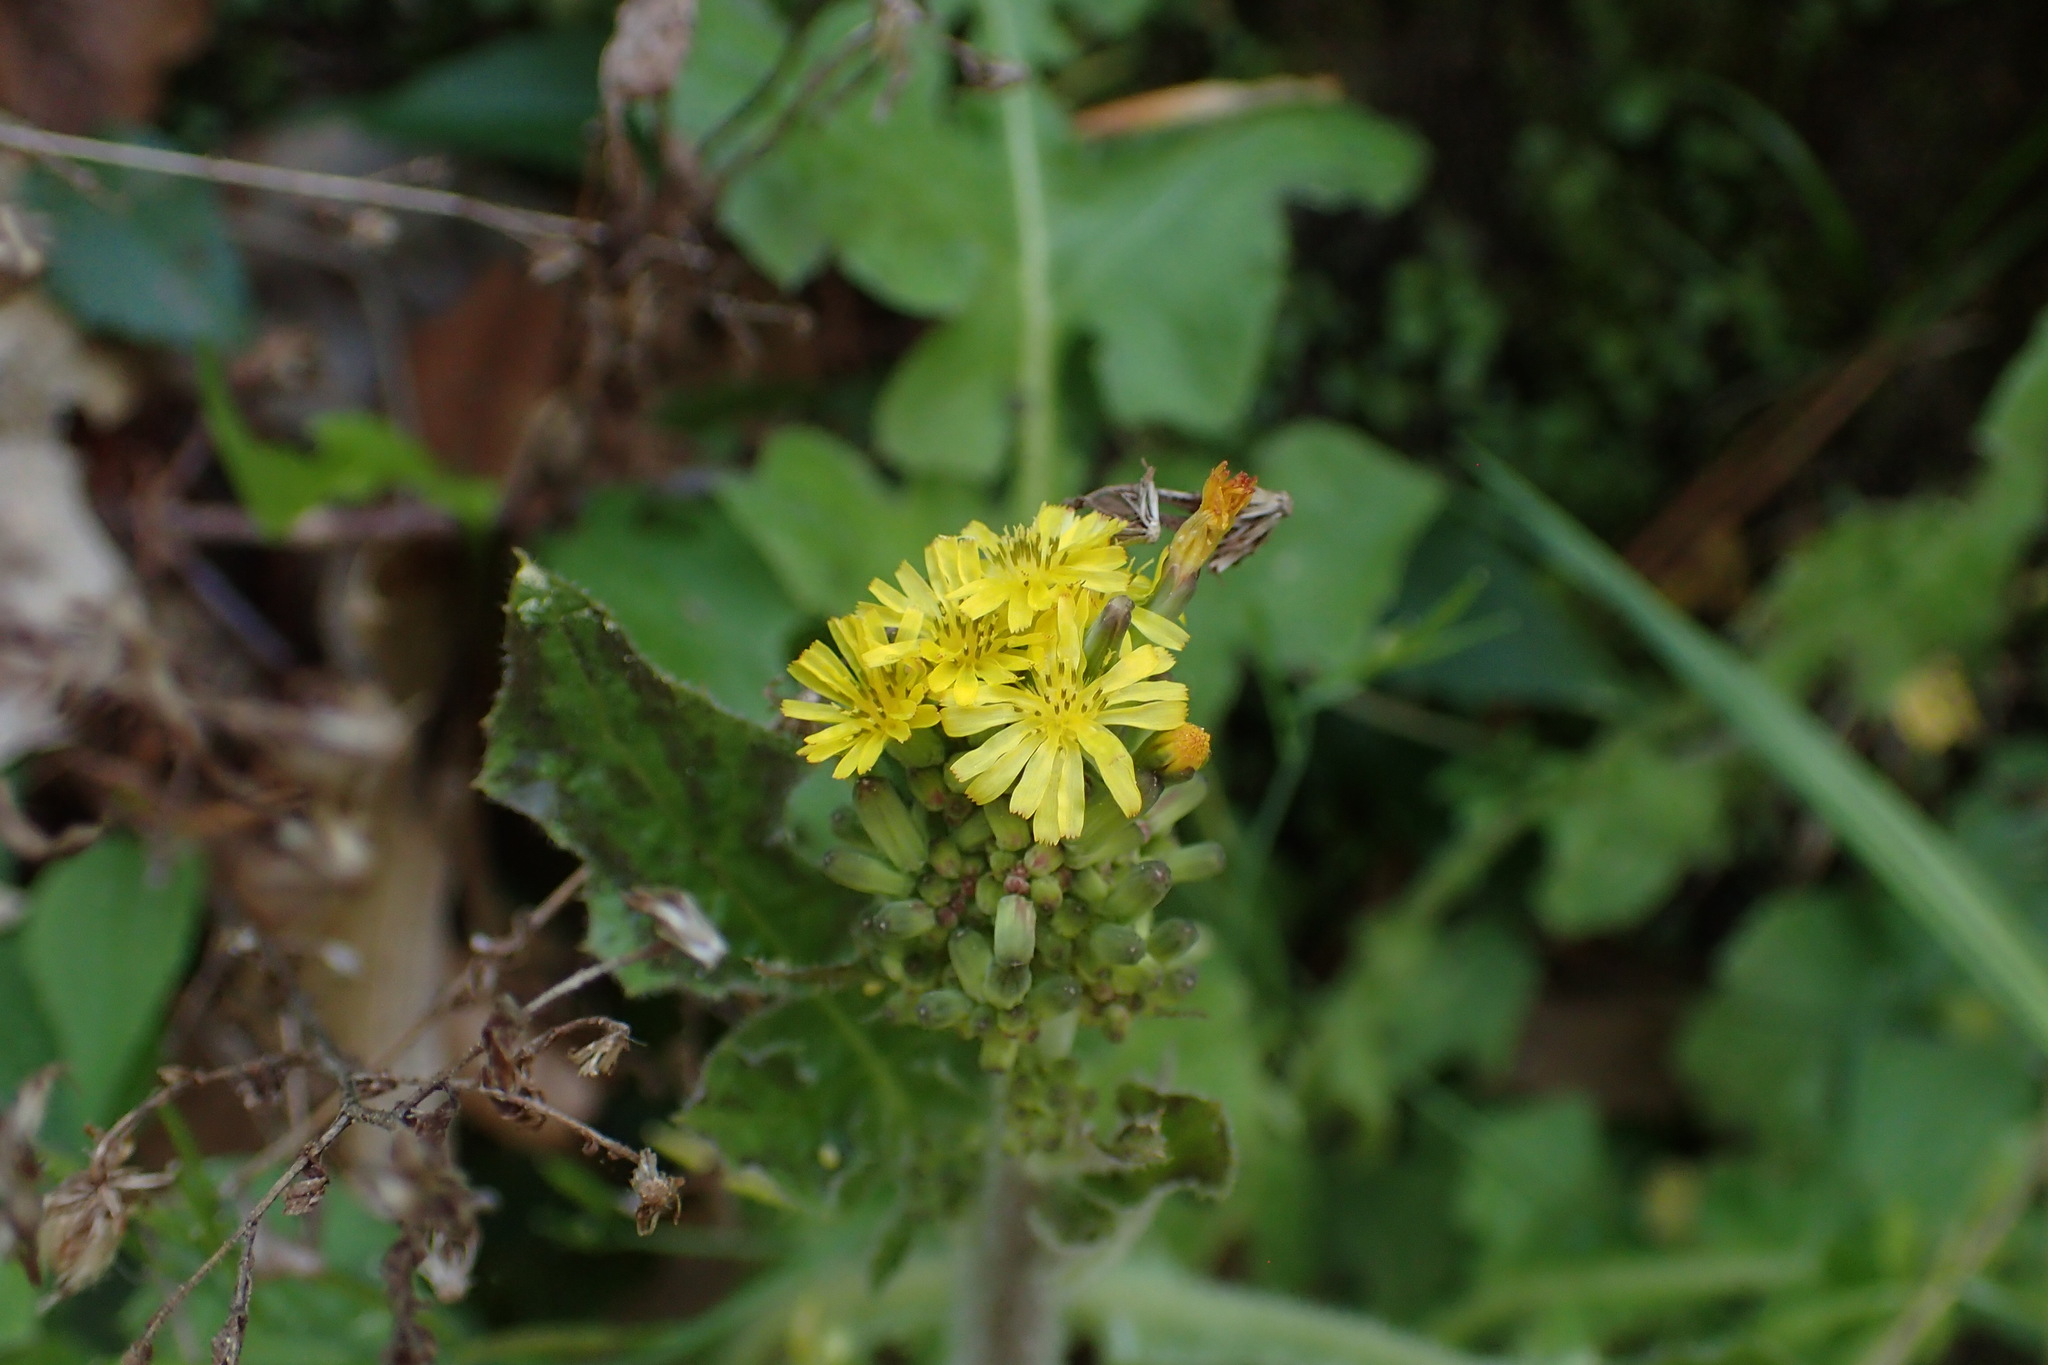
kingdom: Plantae
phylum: Tracheophyta
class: Magnoliopsida
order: Asterales
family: Asteraceae
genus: Youngia
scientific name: Youngia japonica
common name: Oriental false hawksbeard
